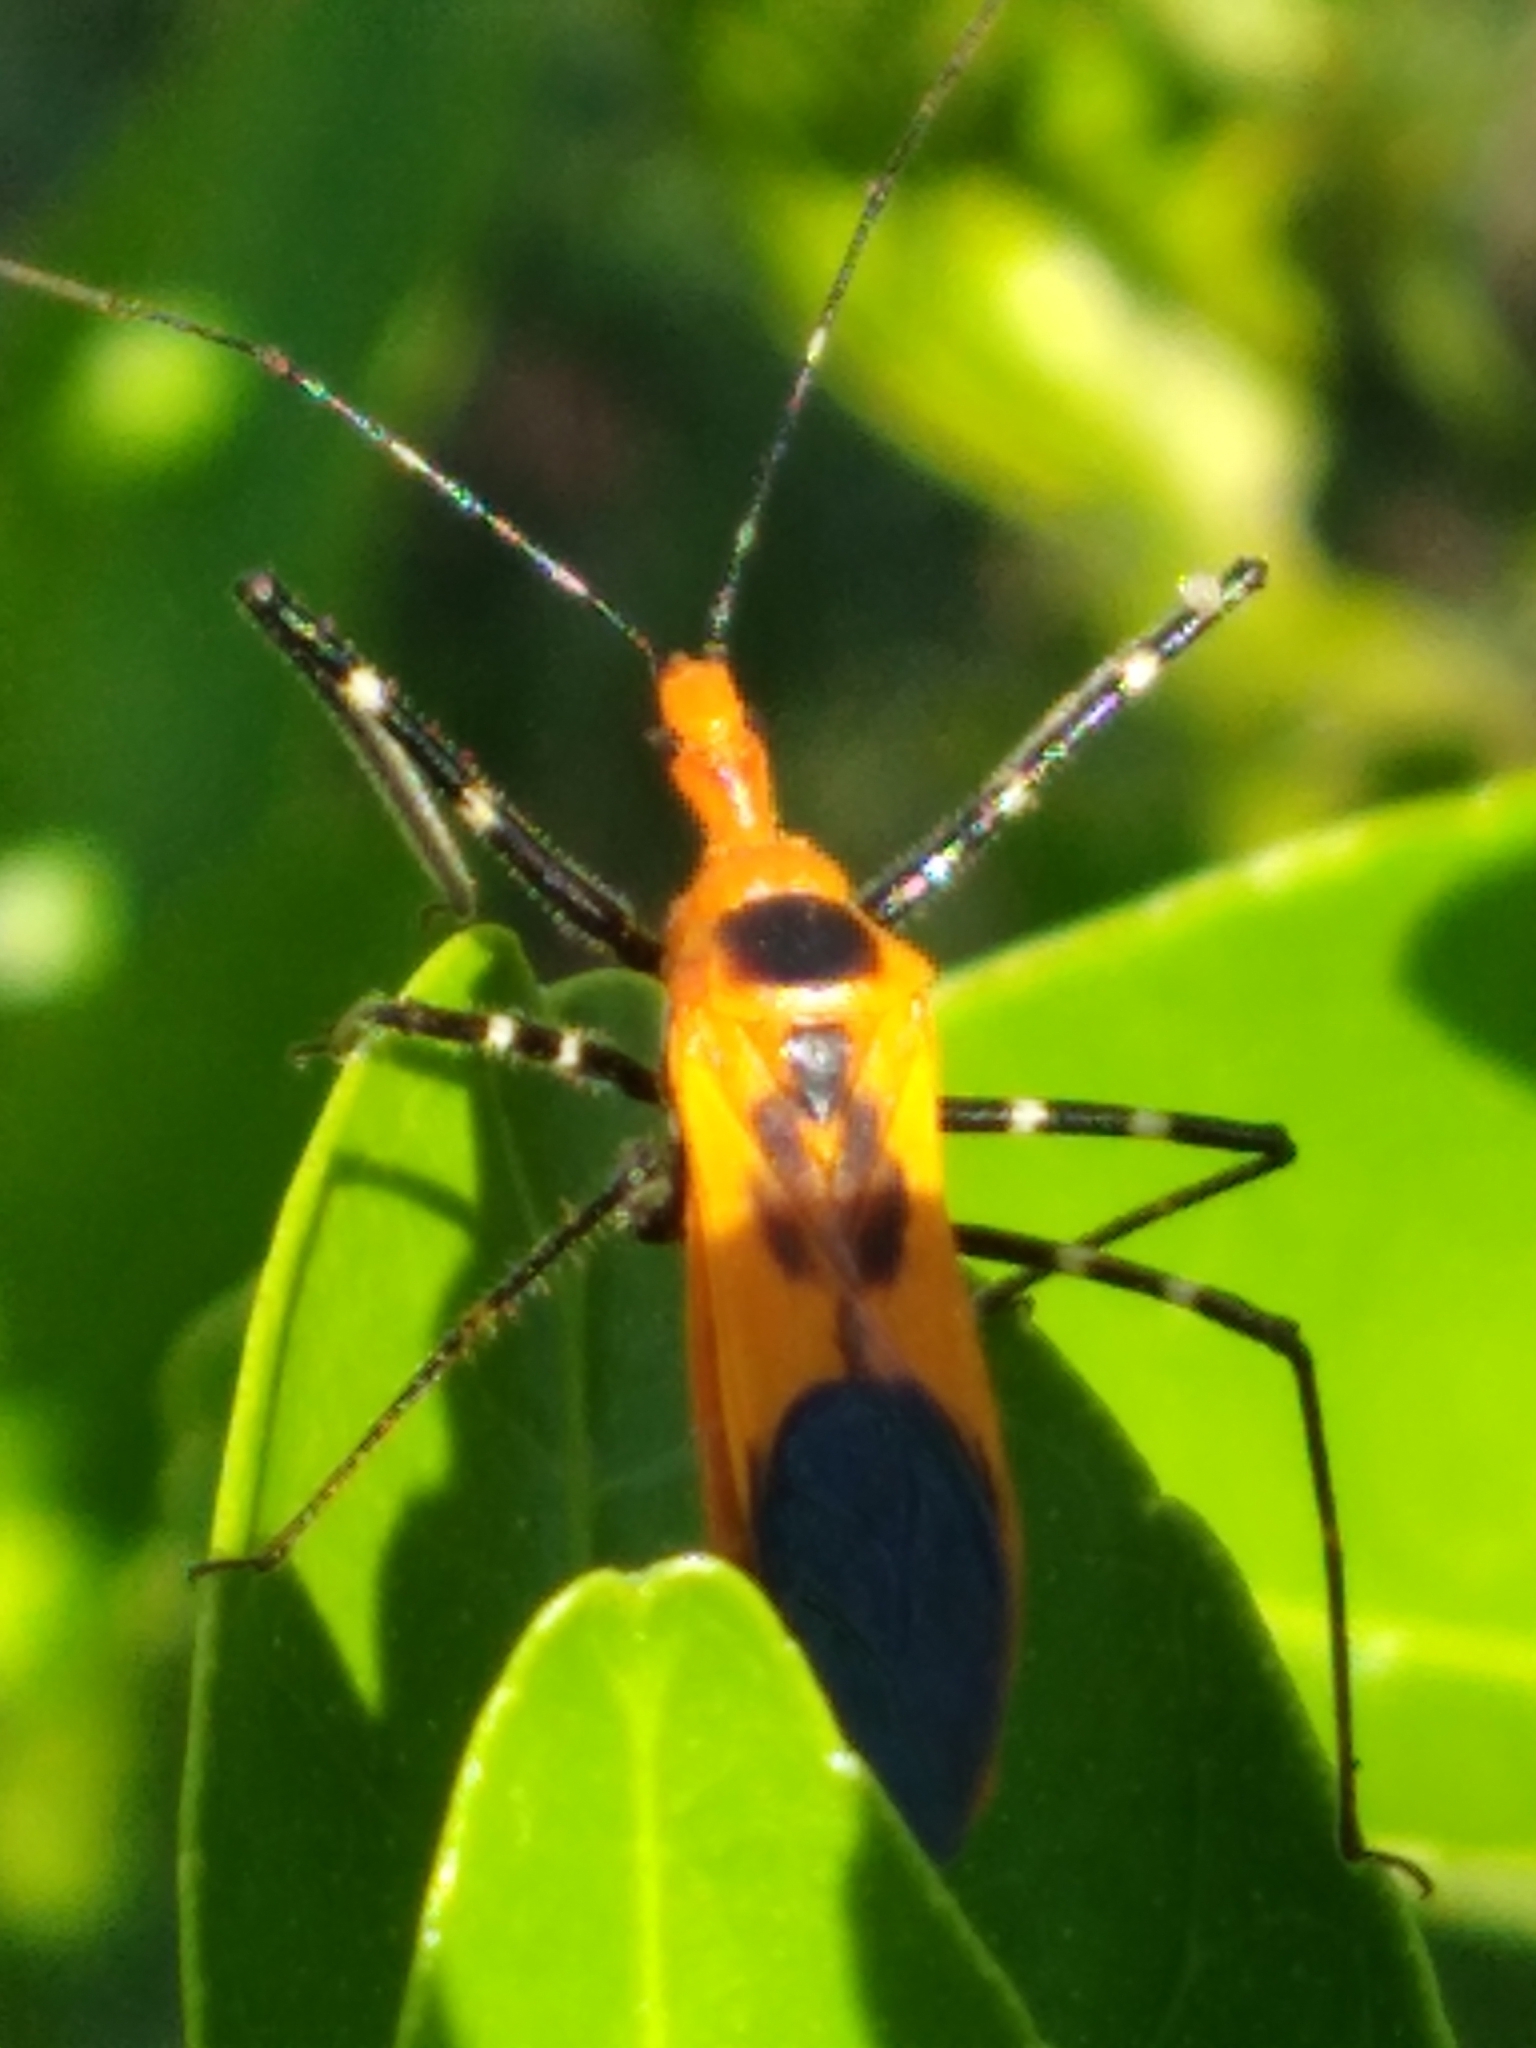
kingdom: Animalia
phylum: Arthropoda
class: Insecta
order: Hemiptera
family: Reduviidae
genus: Zelus
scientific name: Zelus longipes
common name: Milkweed assassin bug
